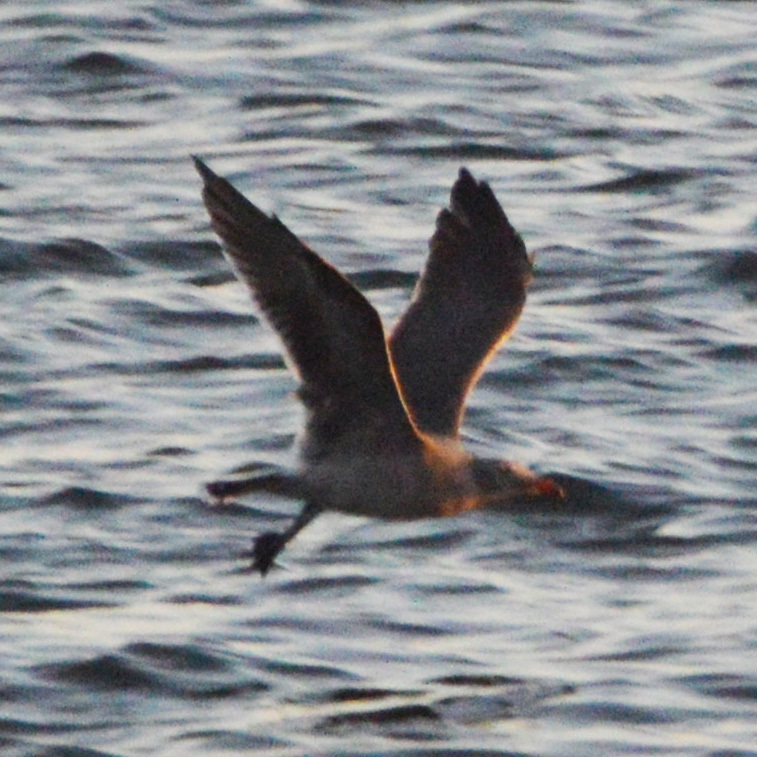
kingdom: Animalia
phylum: Chordata
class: Aves
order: Charadriiformes
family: Laridae
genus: Larus
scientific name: Larus heermanni
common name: Heermann's gull
